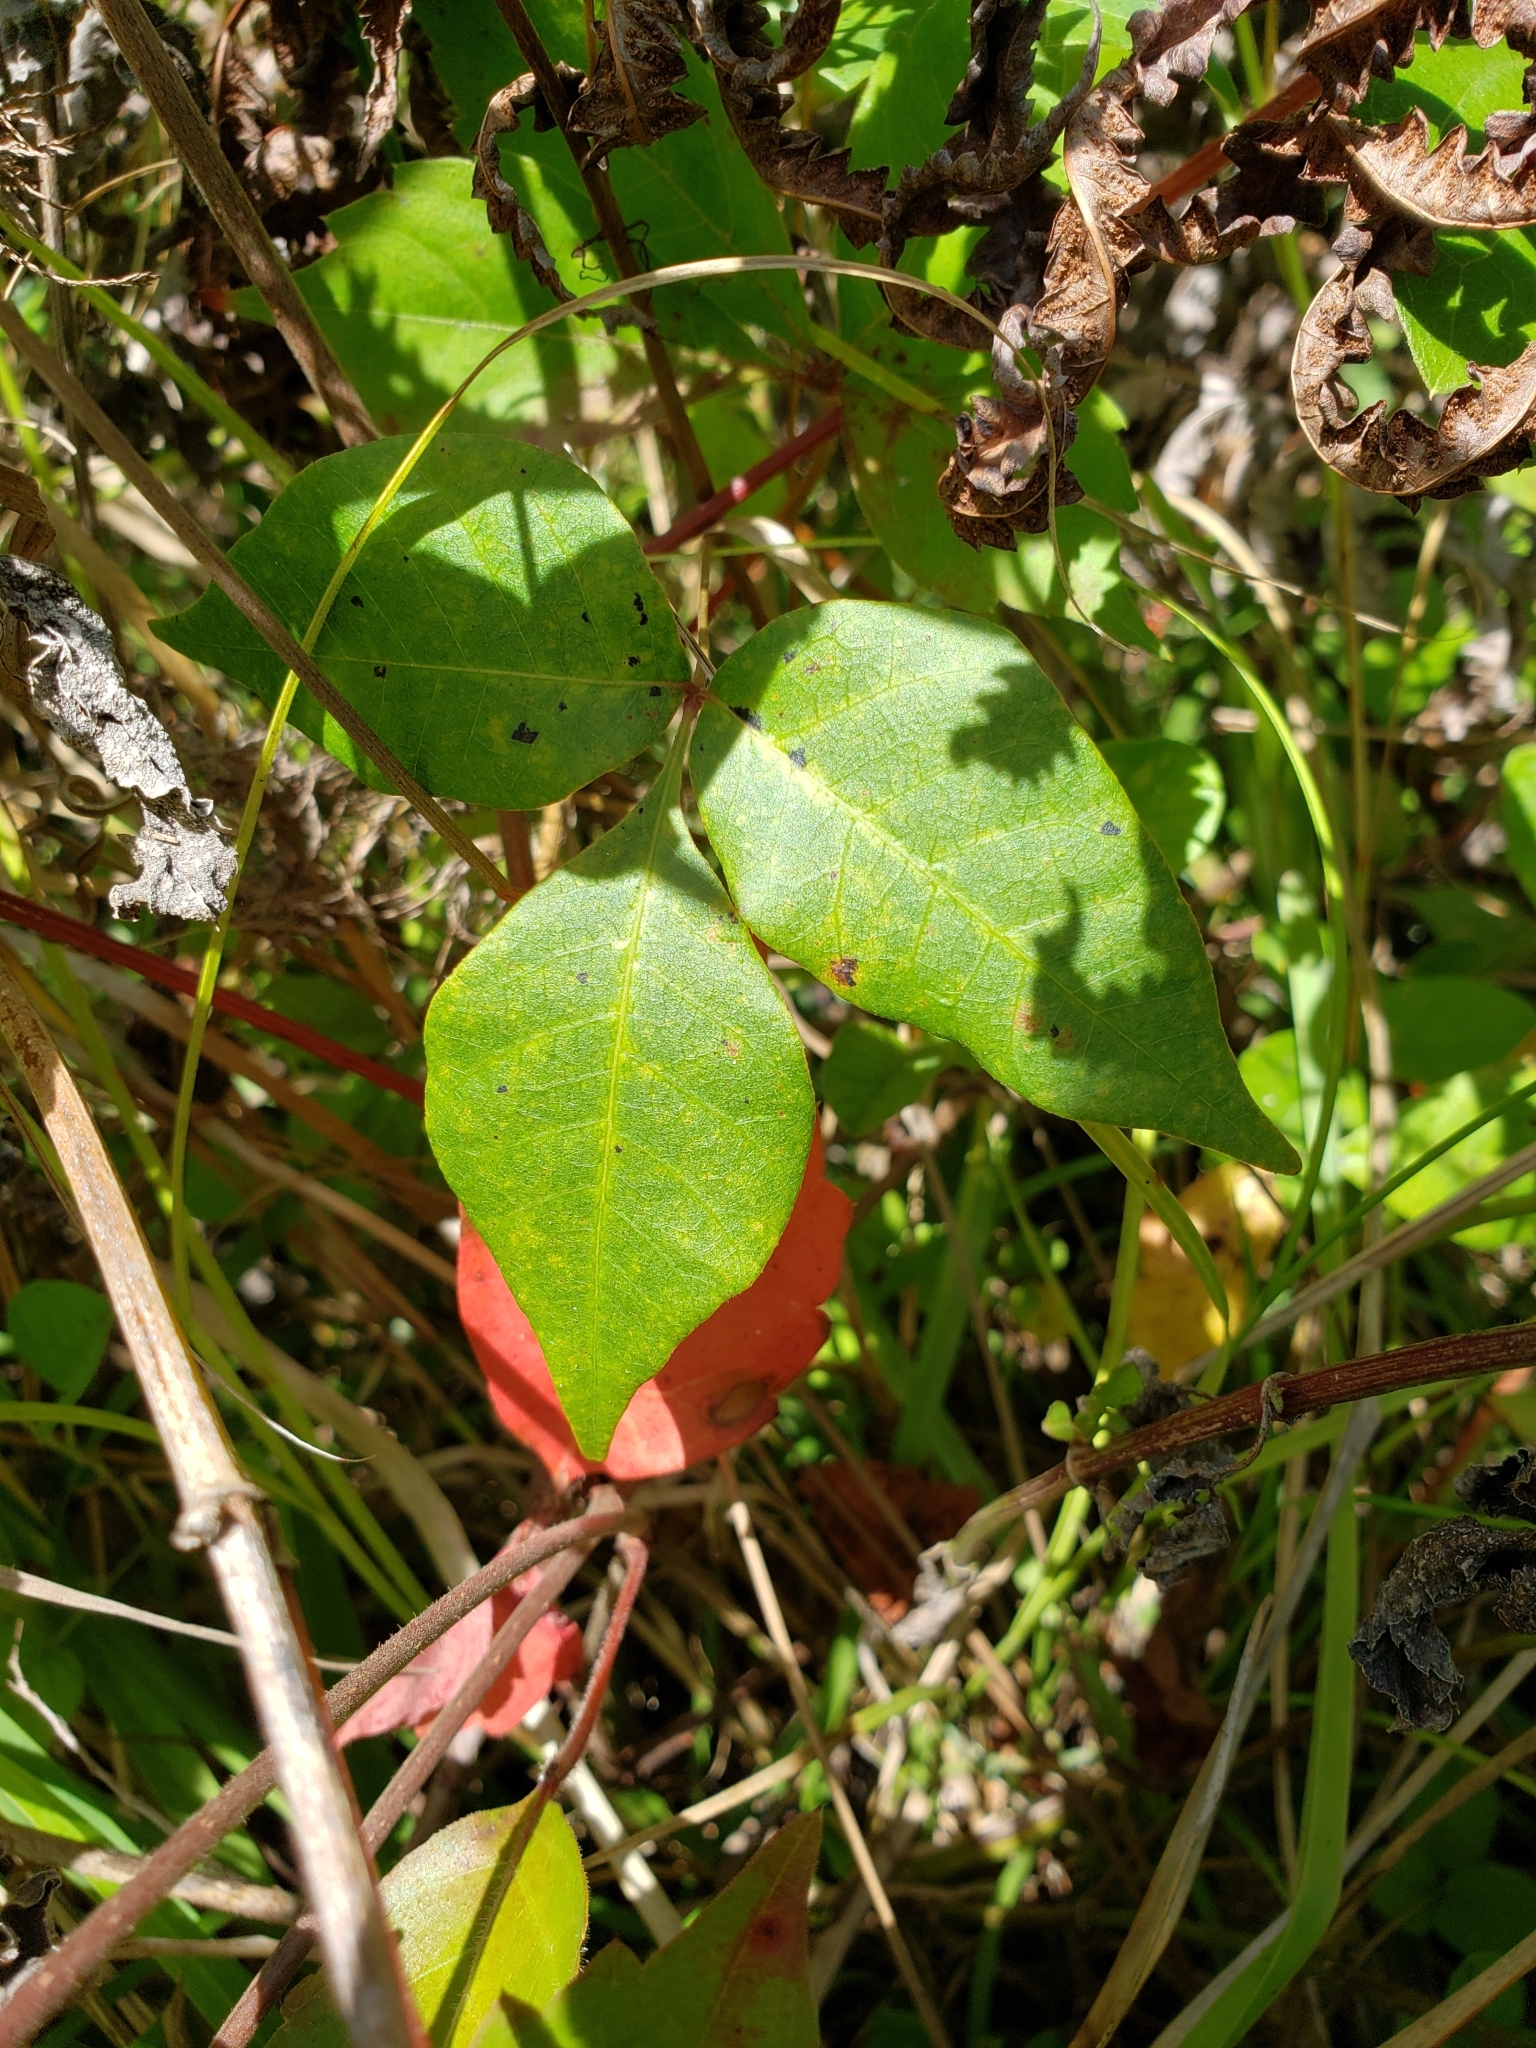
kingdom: Plantae
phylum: Tracheophyta
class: Magnoliopsida
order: Sapindales
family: Anacardiaceae
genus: Toxicodendron
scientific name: Toxicodendron radicans
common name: Poison ivy
